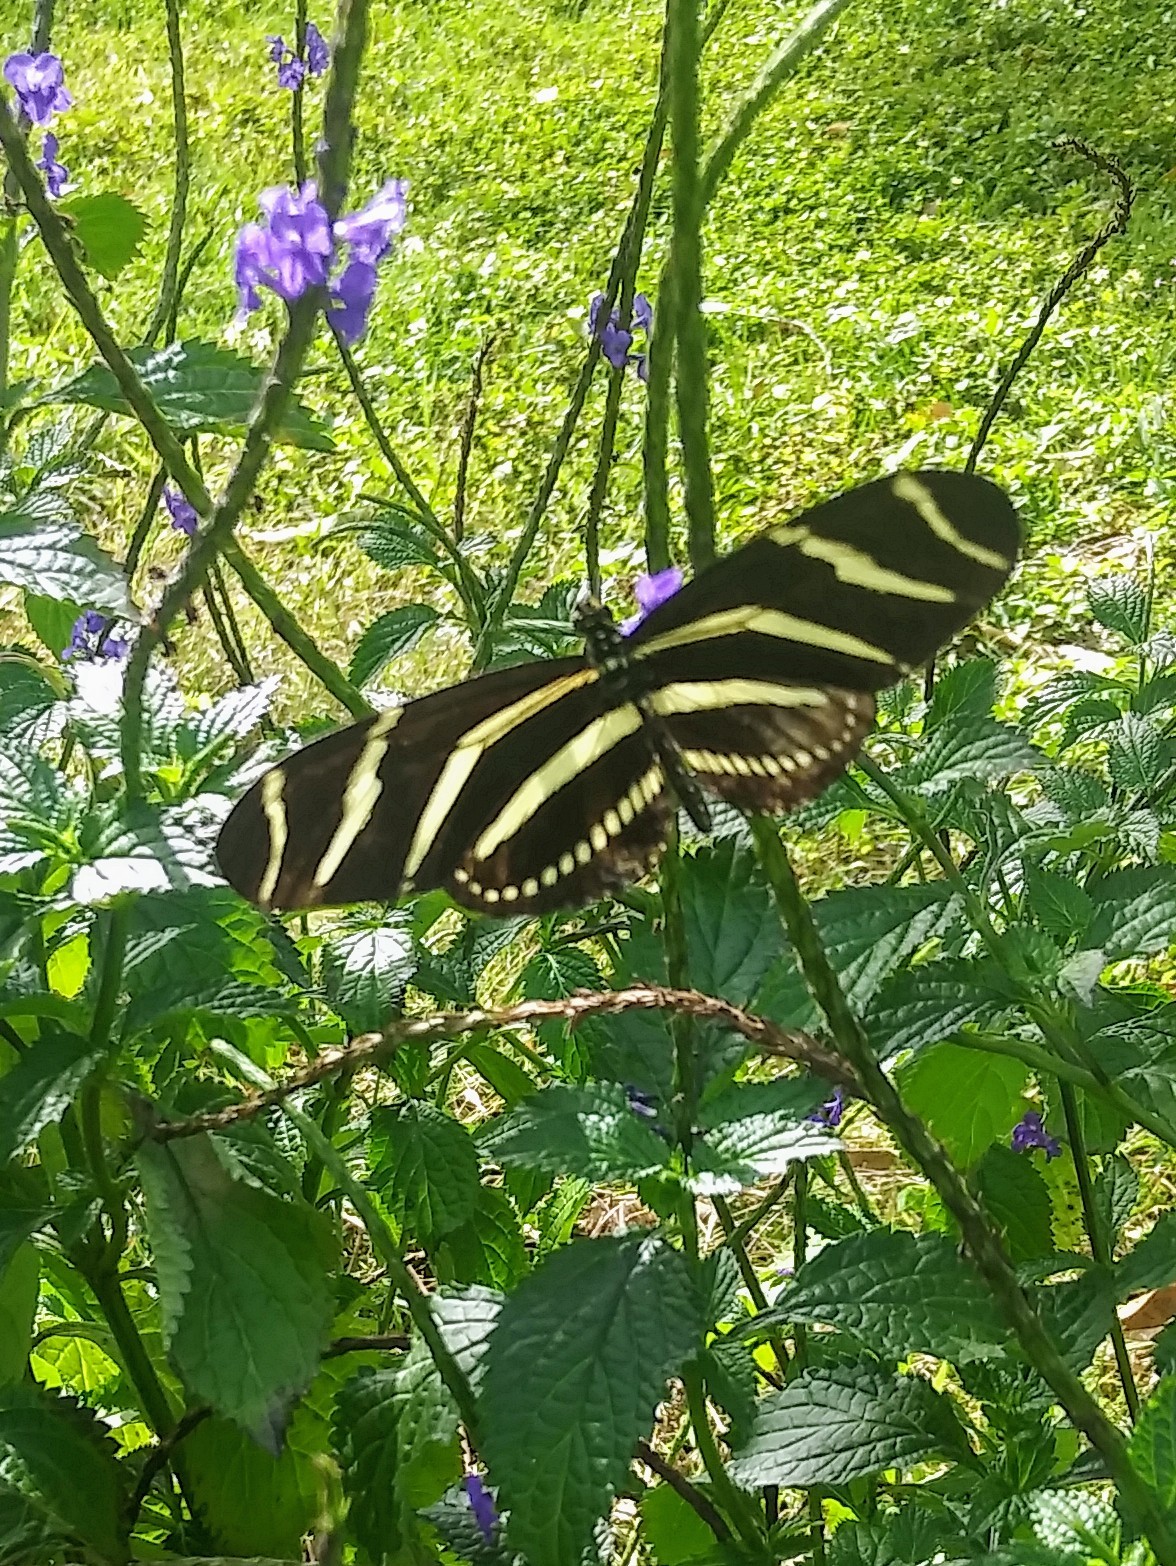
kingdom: Animalia
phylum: Arthropoda
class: Insecta
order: Lepidoptera
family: Nymphalidae
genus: Heliconius
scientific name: Heliconius charithonia
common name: Zebra long wing
